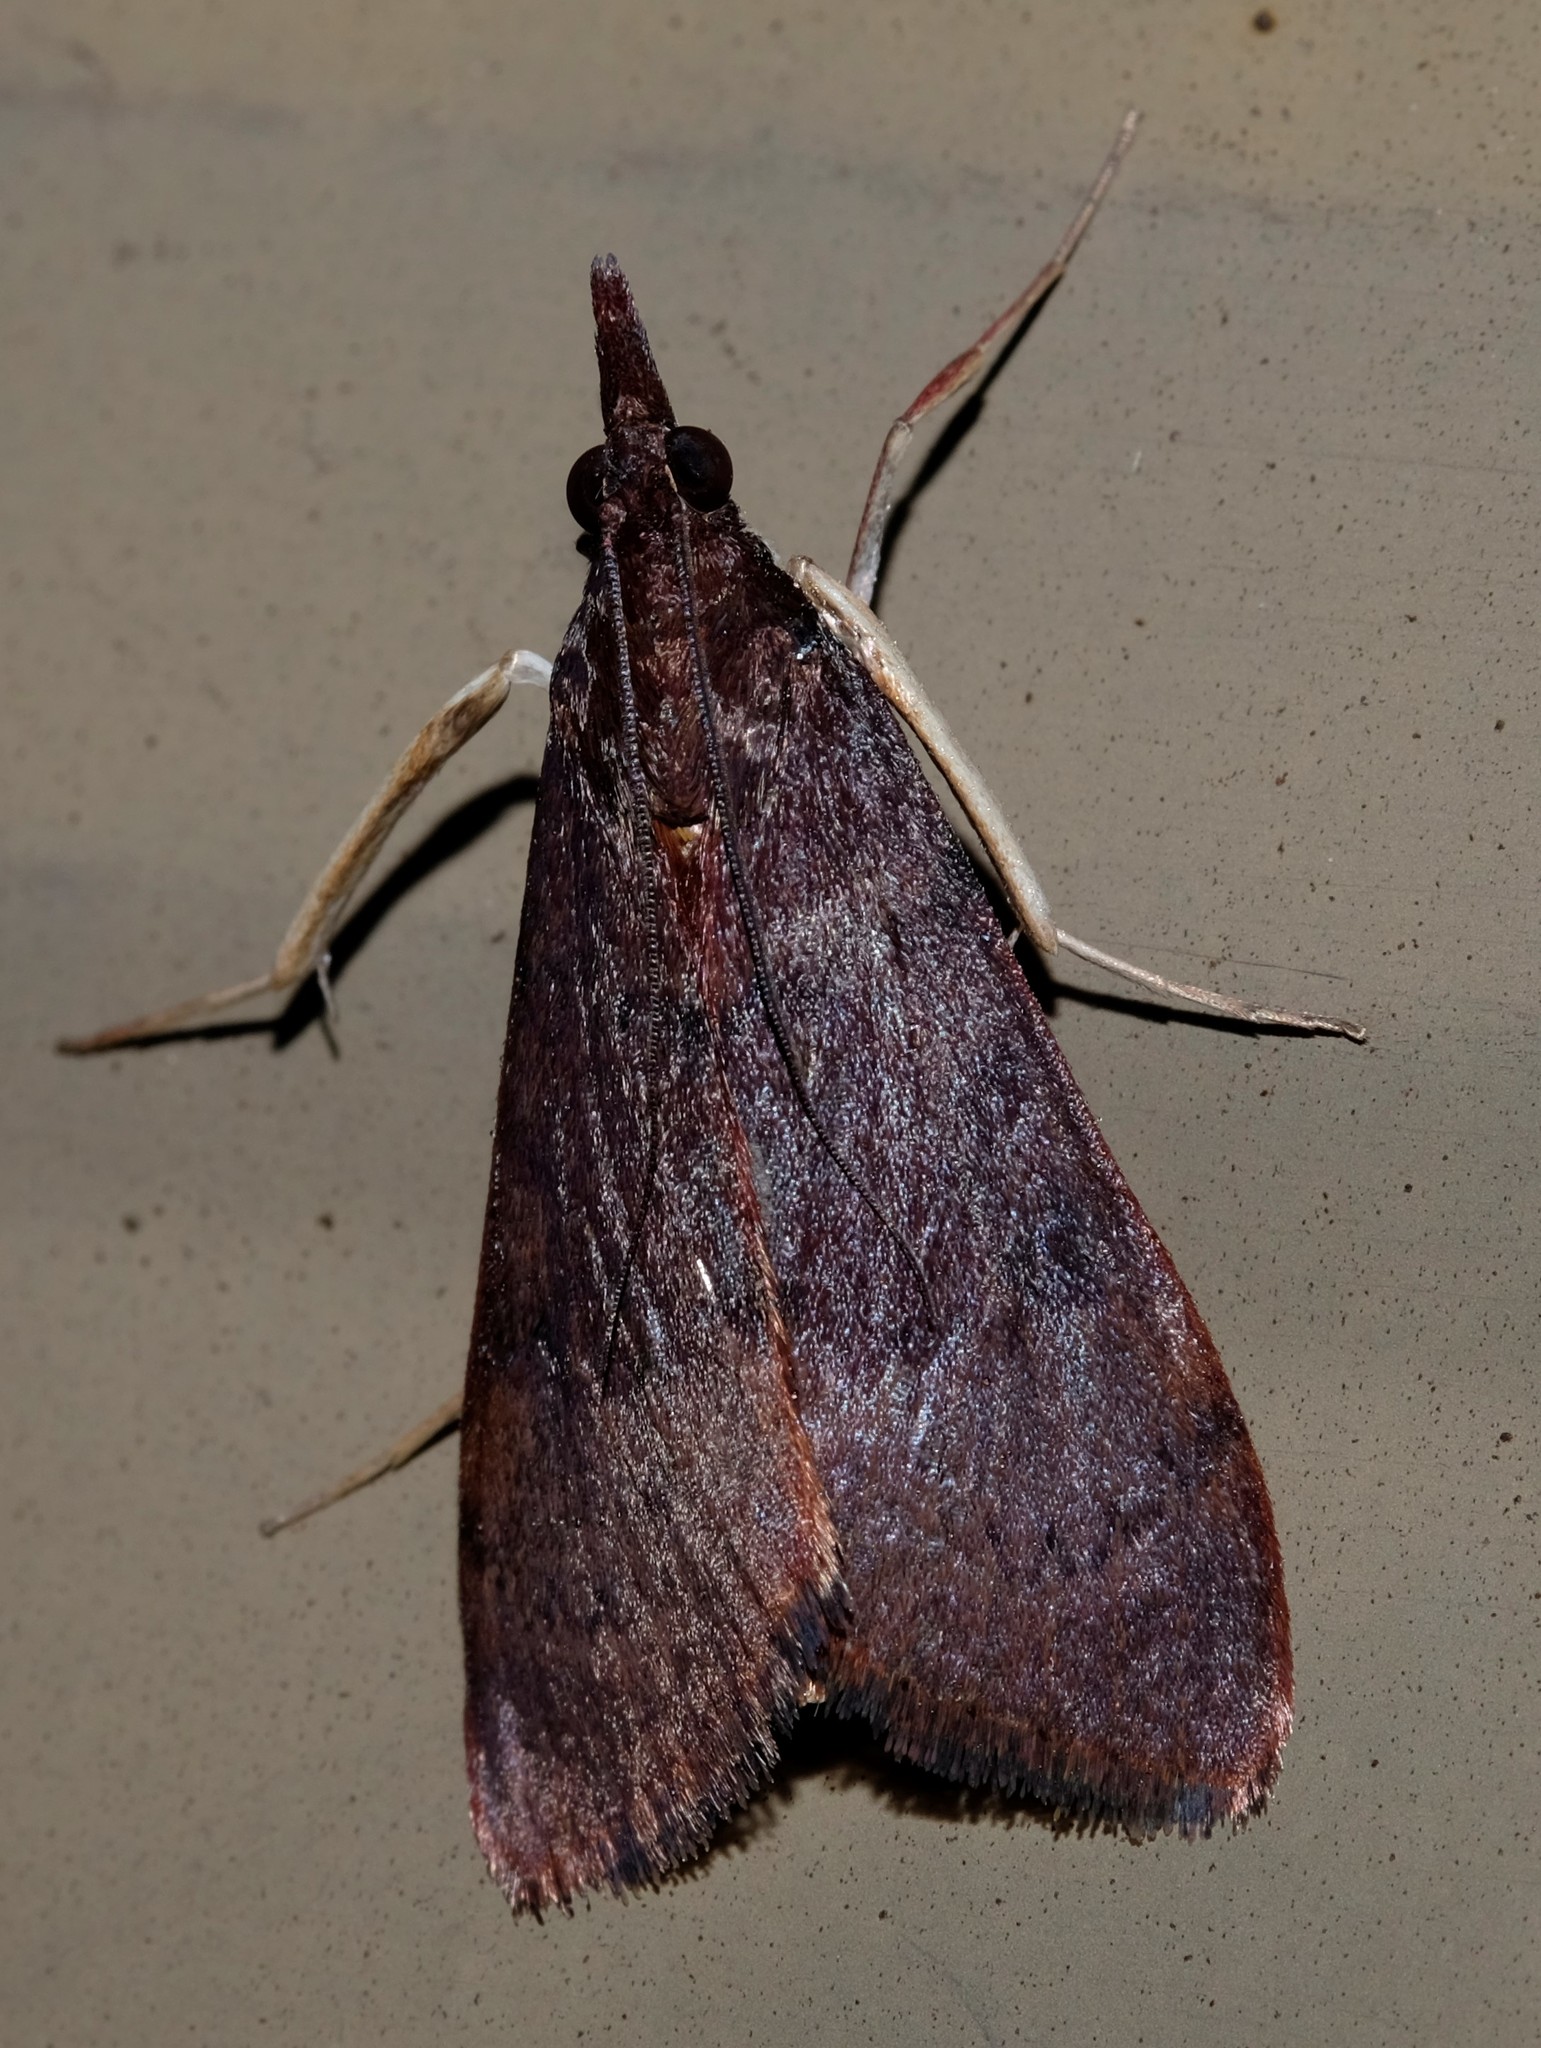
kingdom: Animalia
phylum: Arthropoda
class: Insecta
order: Lepidoptera
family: Crambidae
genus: Uresiphita
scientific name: Uresiphita ornithopteralis
